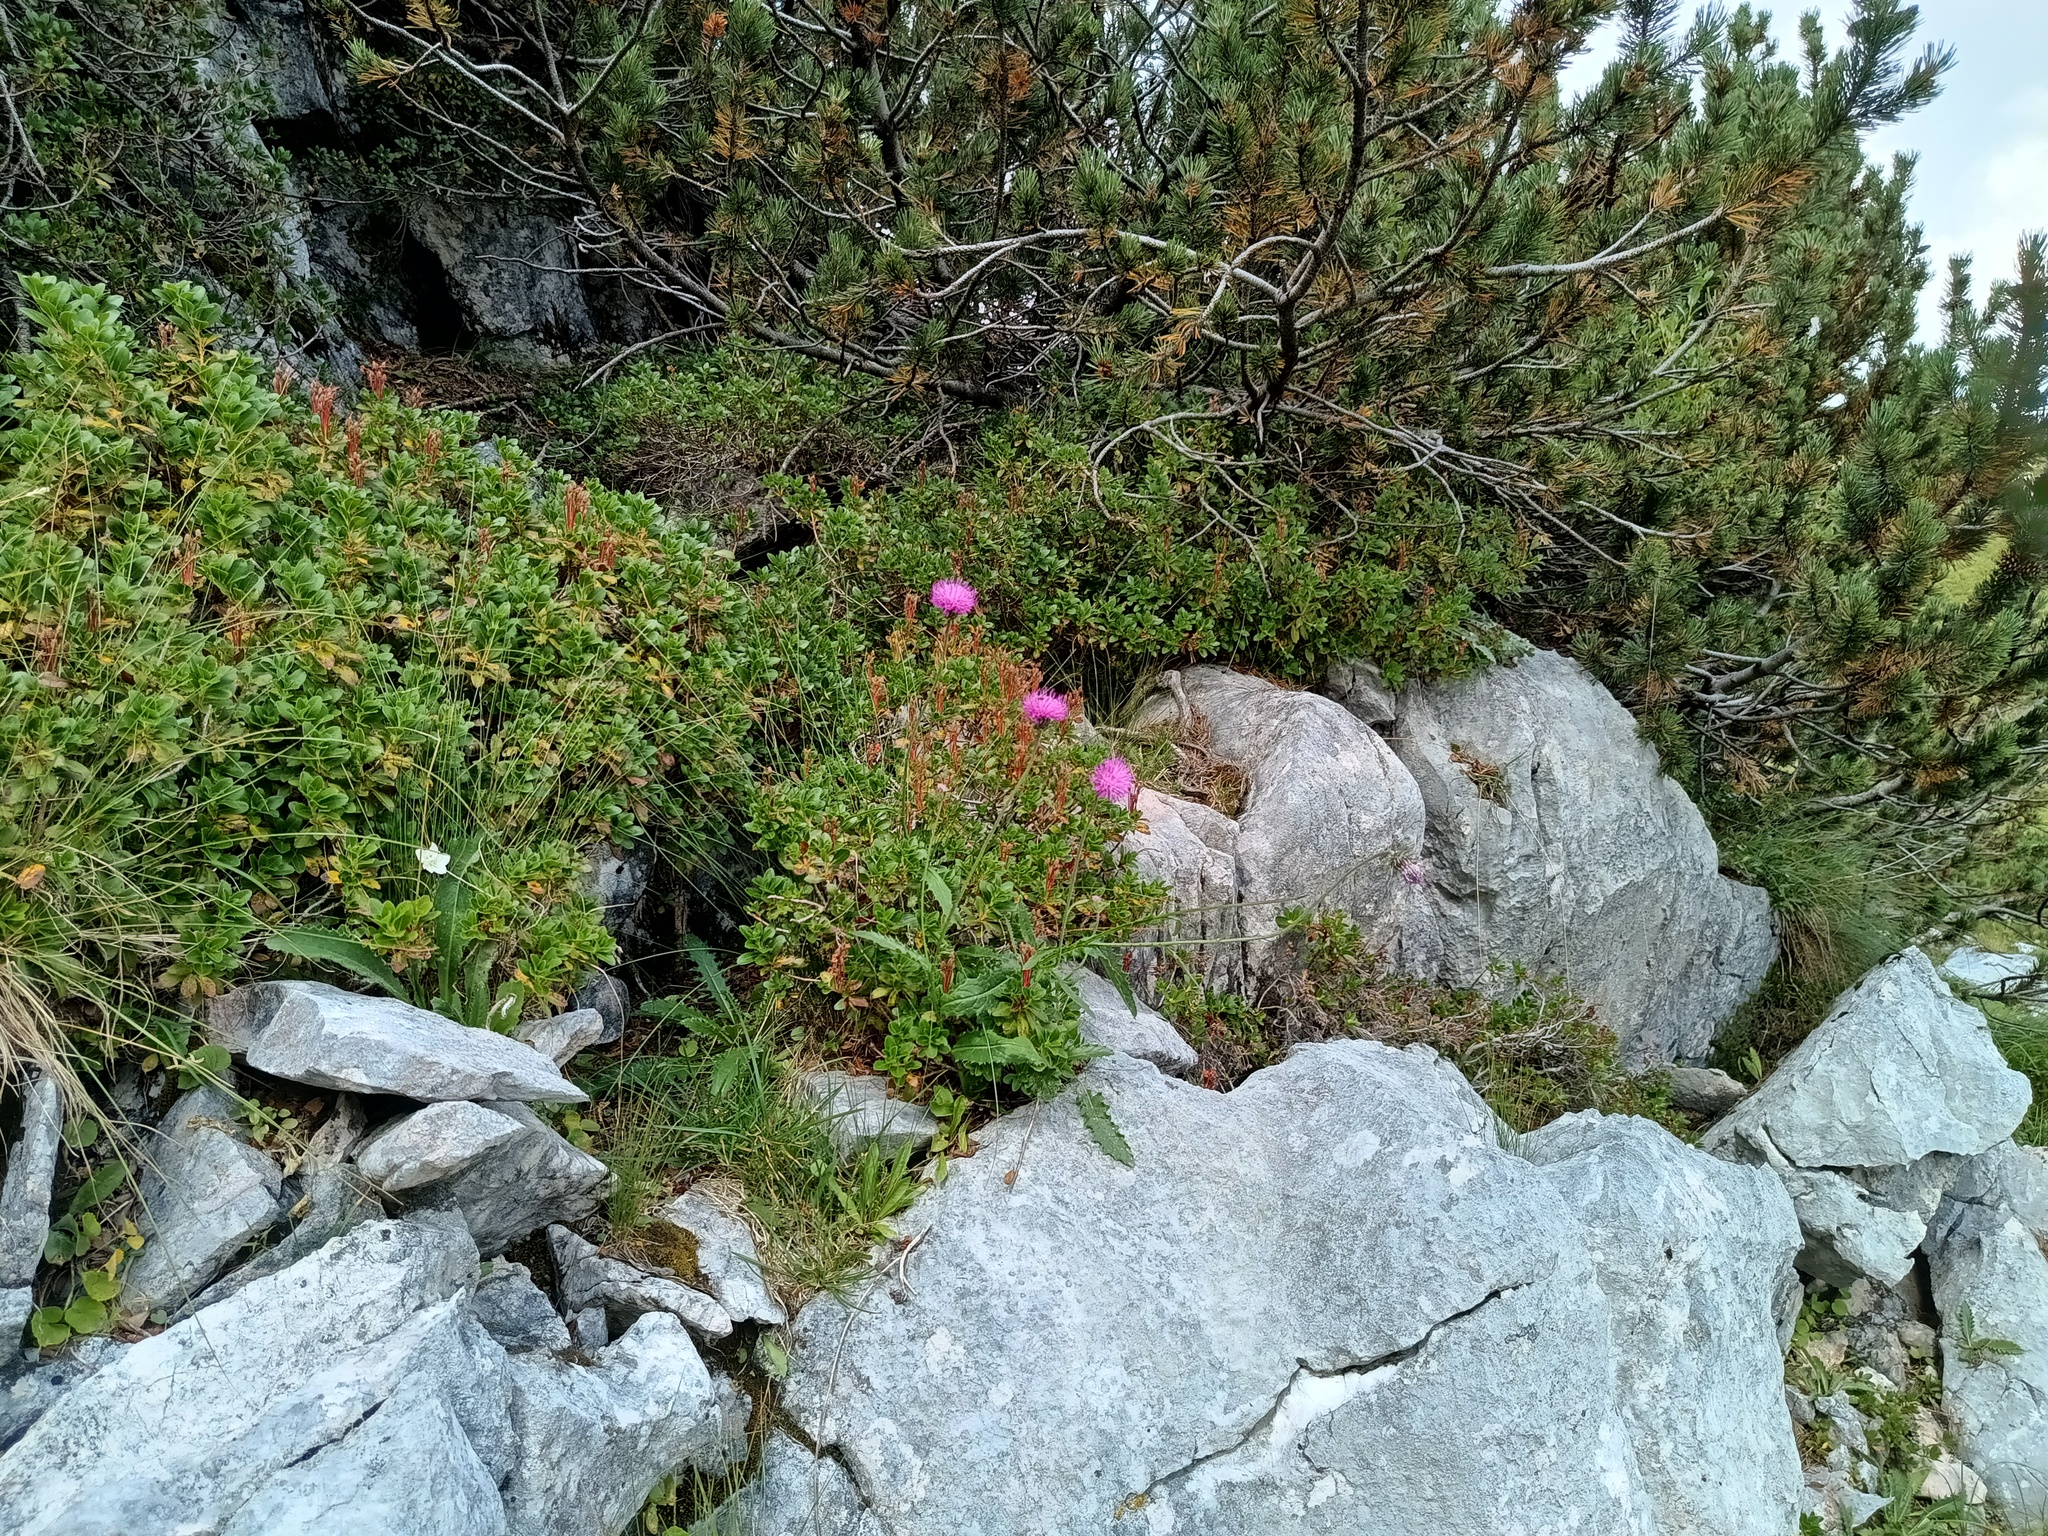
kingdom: Plantae
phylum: Tracheophyta
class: Magnoliopsida
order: Asterales
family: Asteraceae
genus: Carduus
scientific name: Carduus defloratus
